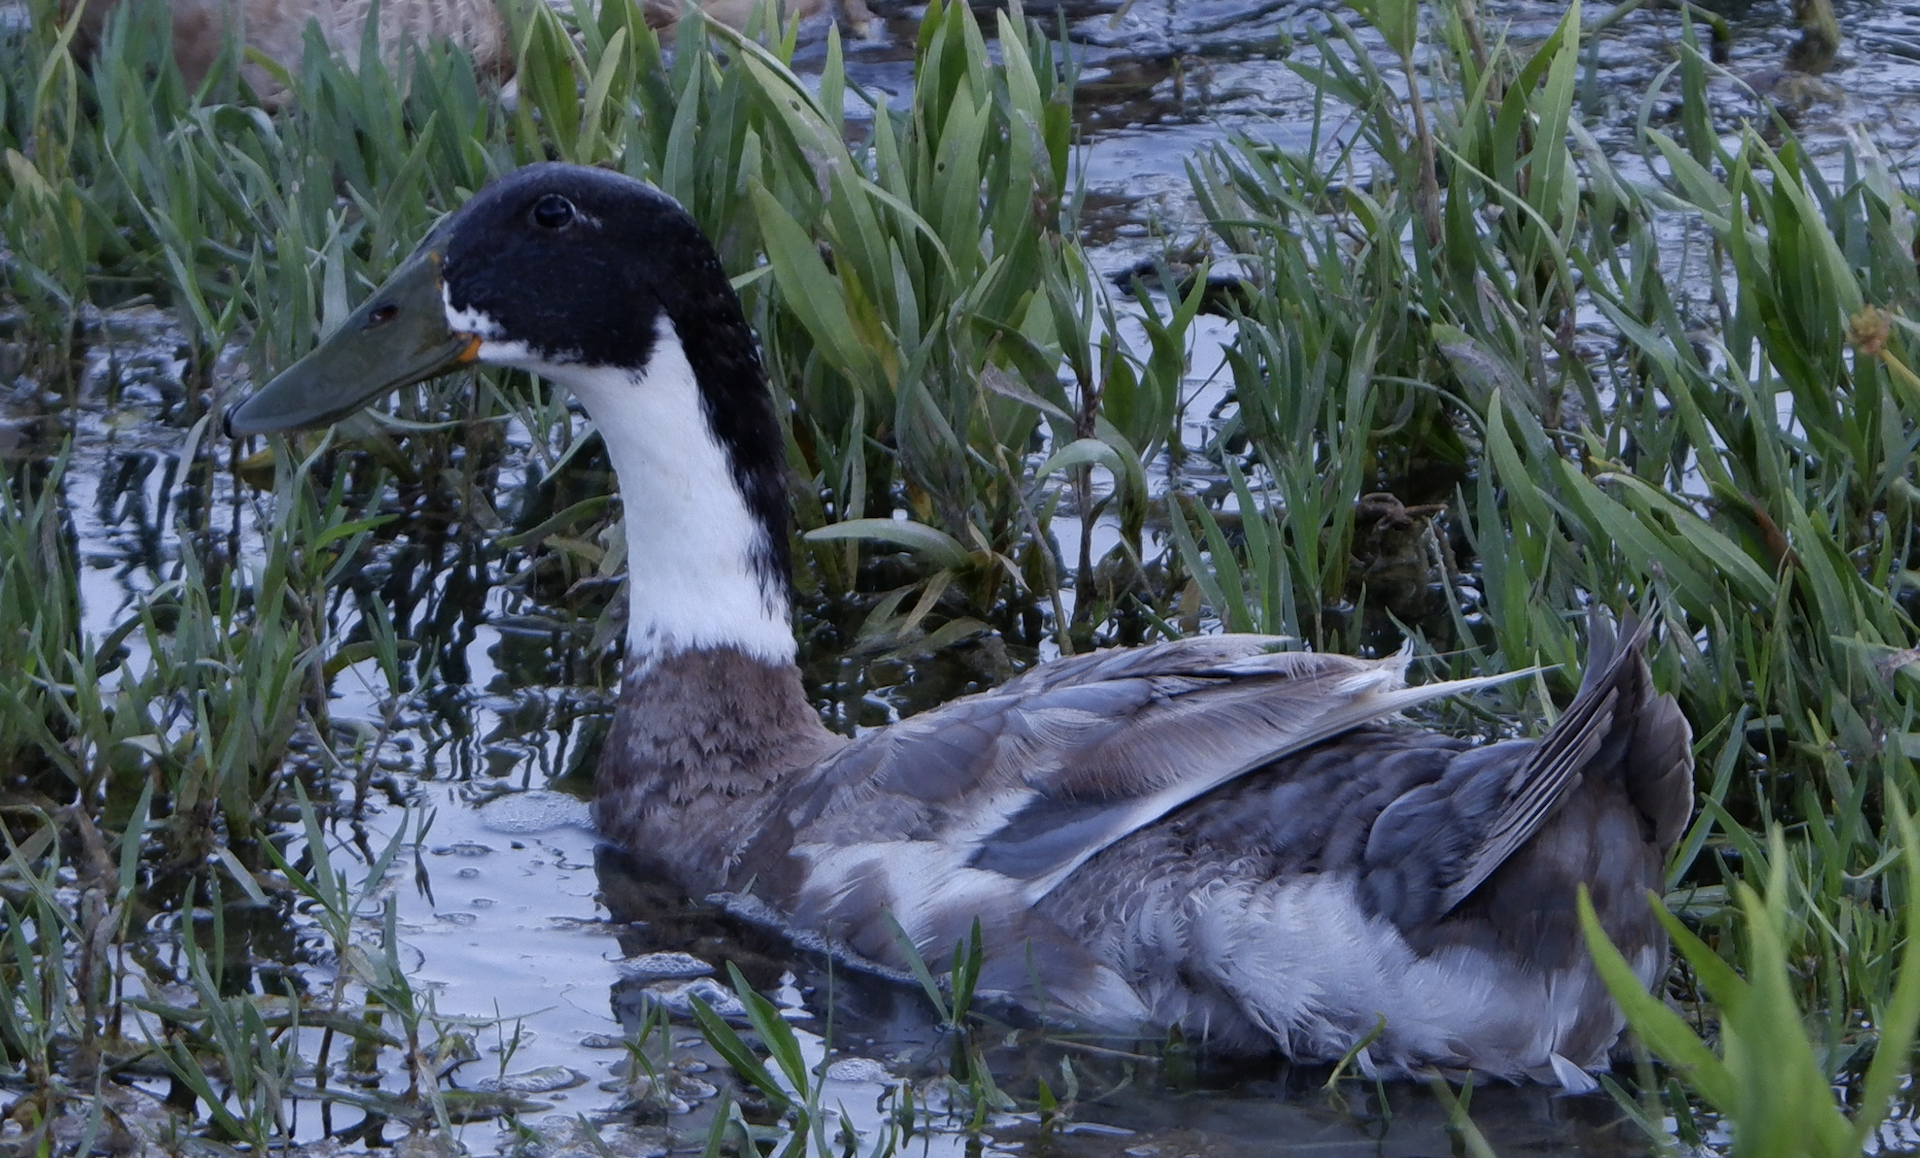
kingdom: Animalia
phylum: Chordata
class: Aves
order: Anseriformes
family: Anatidae
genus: Anas
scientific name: Anas platyrhynchos
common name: Mallard
